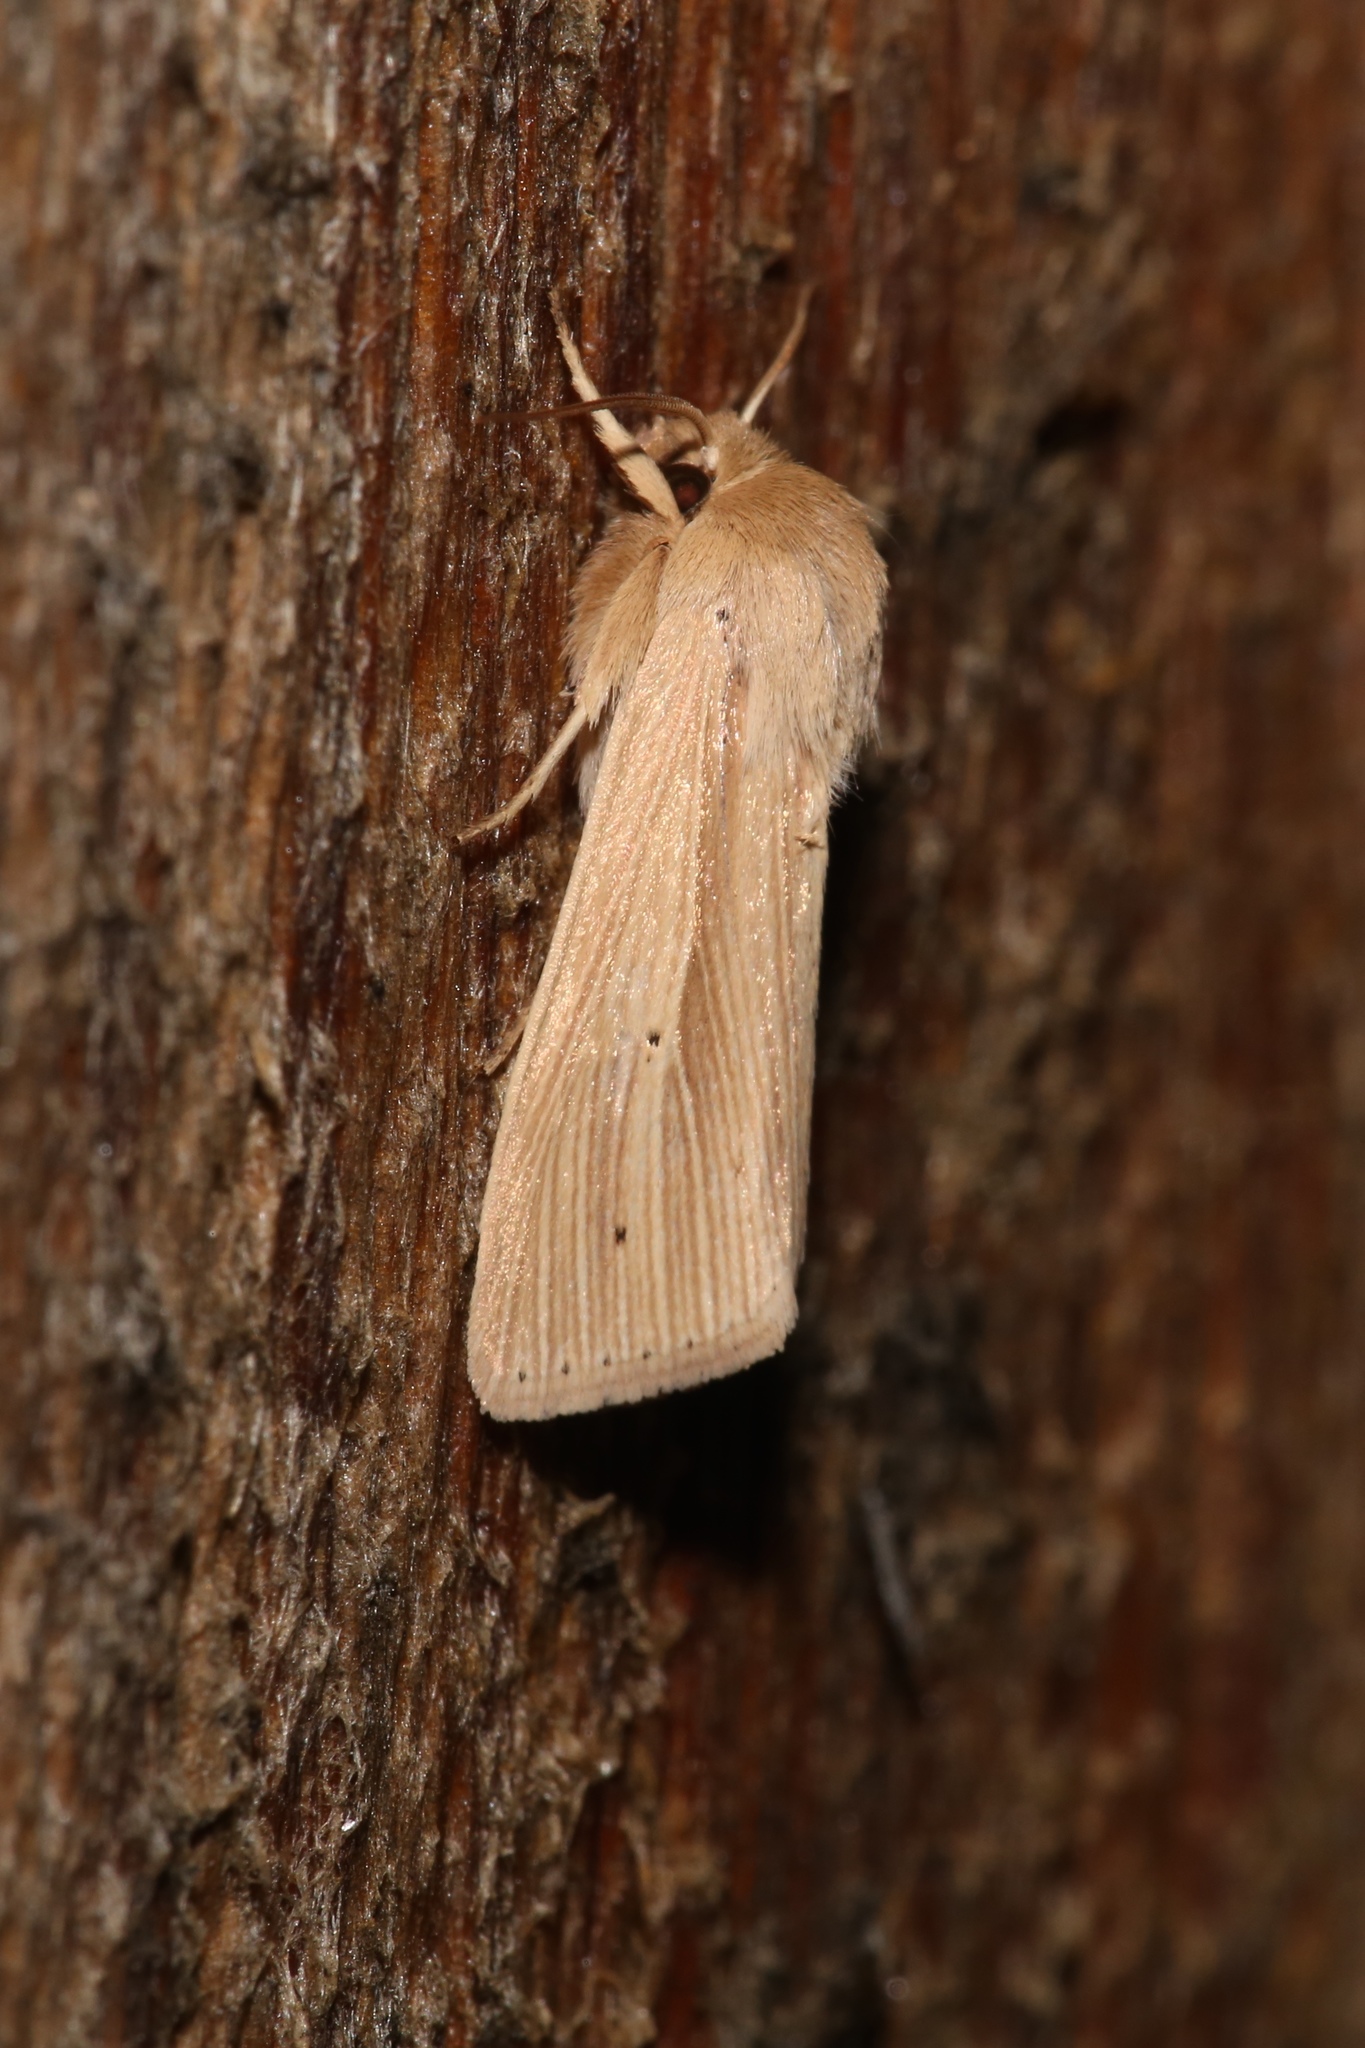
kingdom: Animalia
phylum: Arthropoda
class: Insecta
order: Lepidoptera
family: Noctuidae
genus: Mythimna
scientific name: Mythimna oxygala
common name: Lesser wainscot
